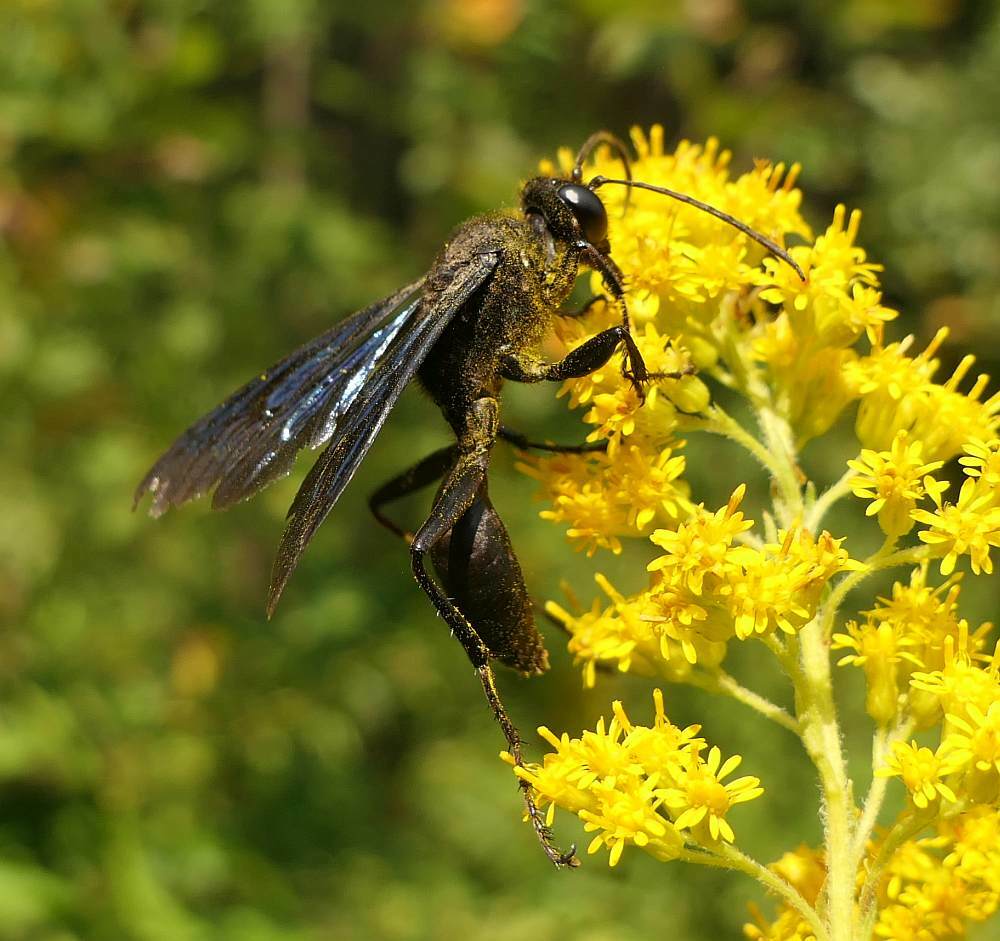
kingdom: Animalia
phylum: Arthropoda
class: Insecta
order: Hymenoptera
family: Sphecidae
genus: Sphex
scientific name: Sphex pensylvanicus
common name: Great black digger wasp
